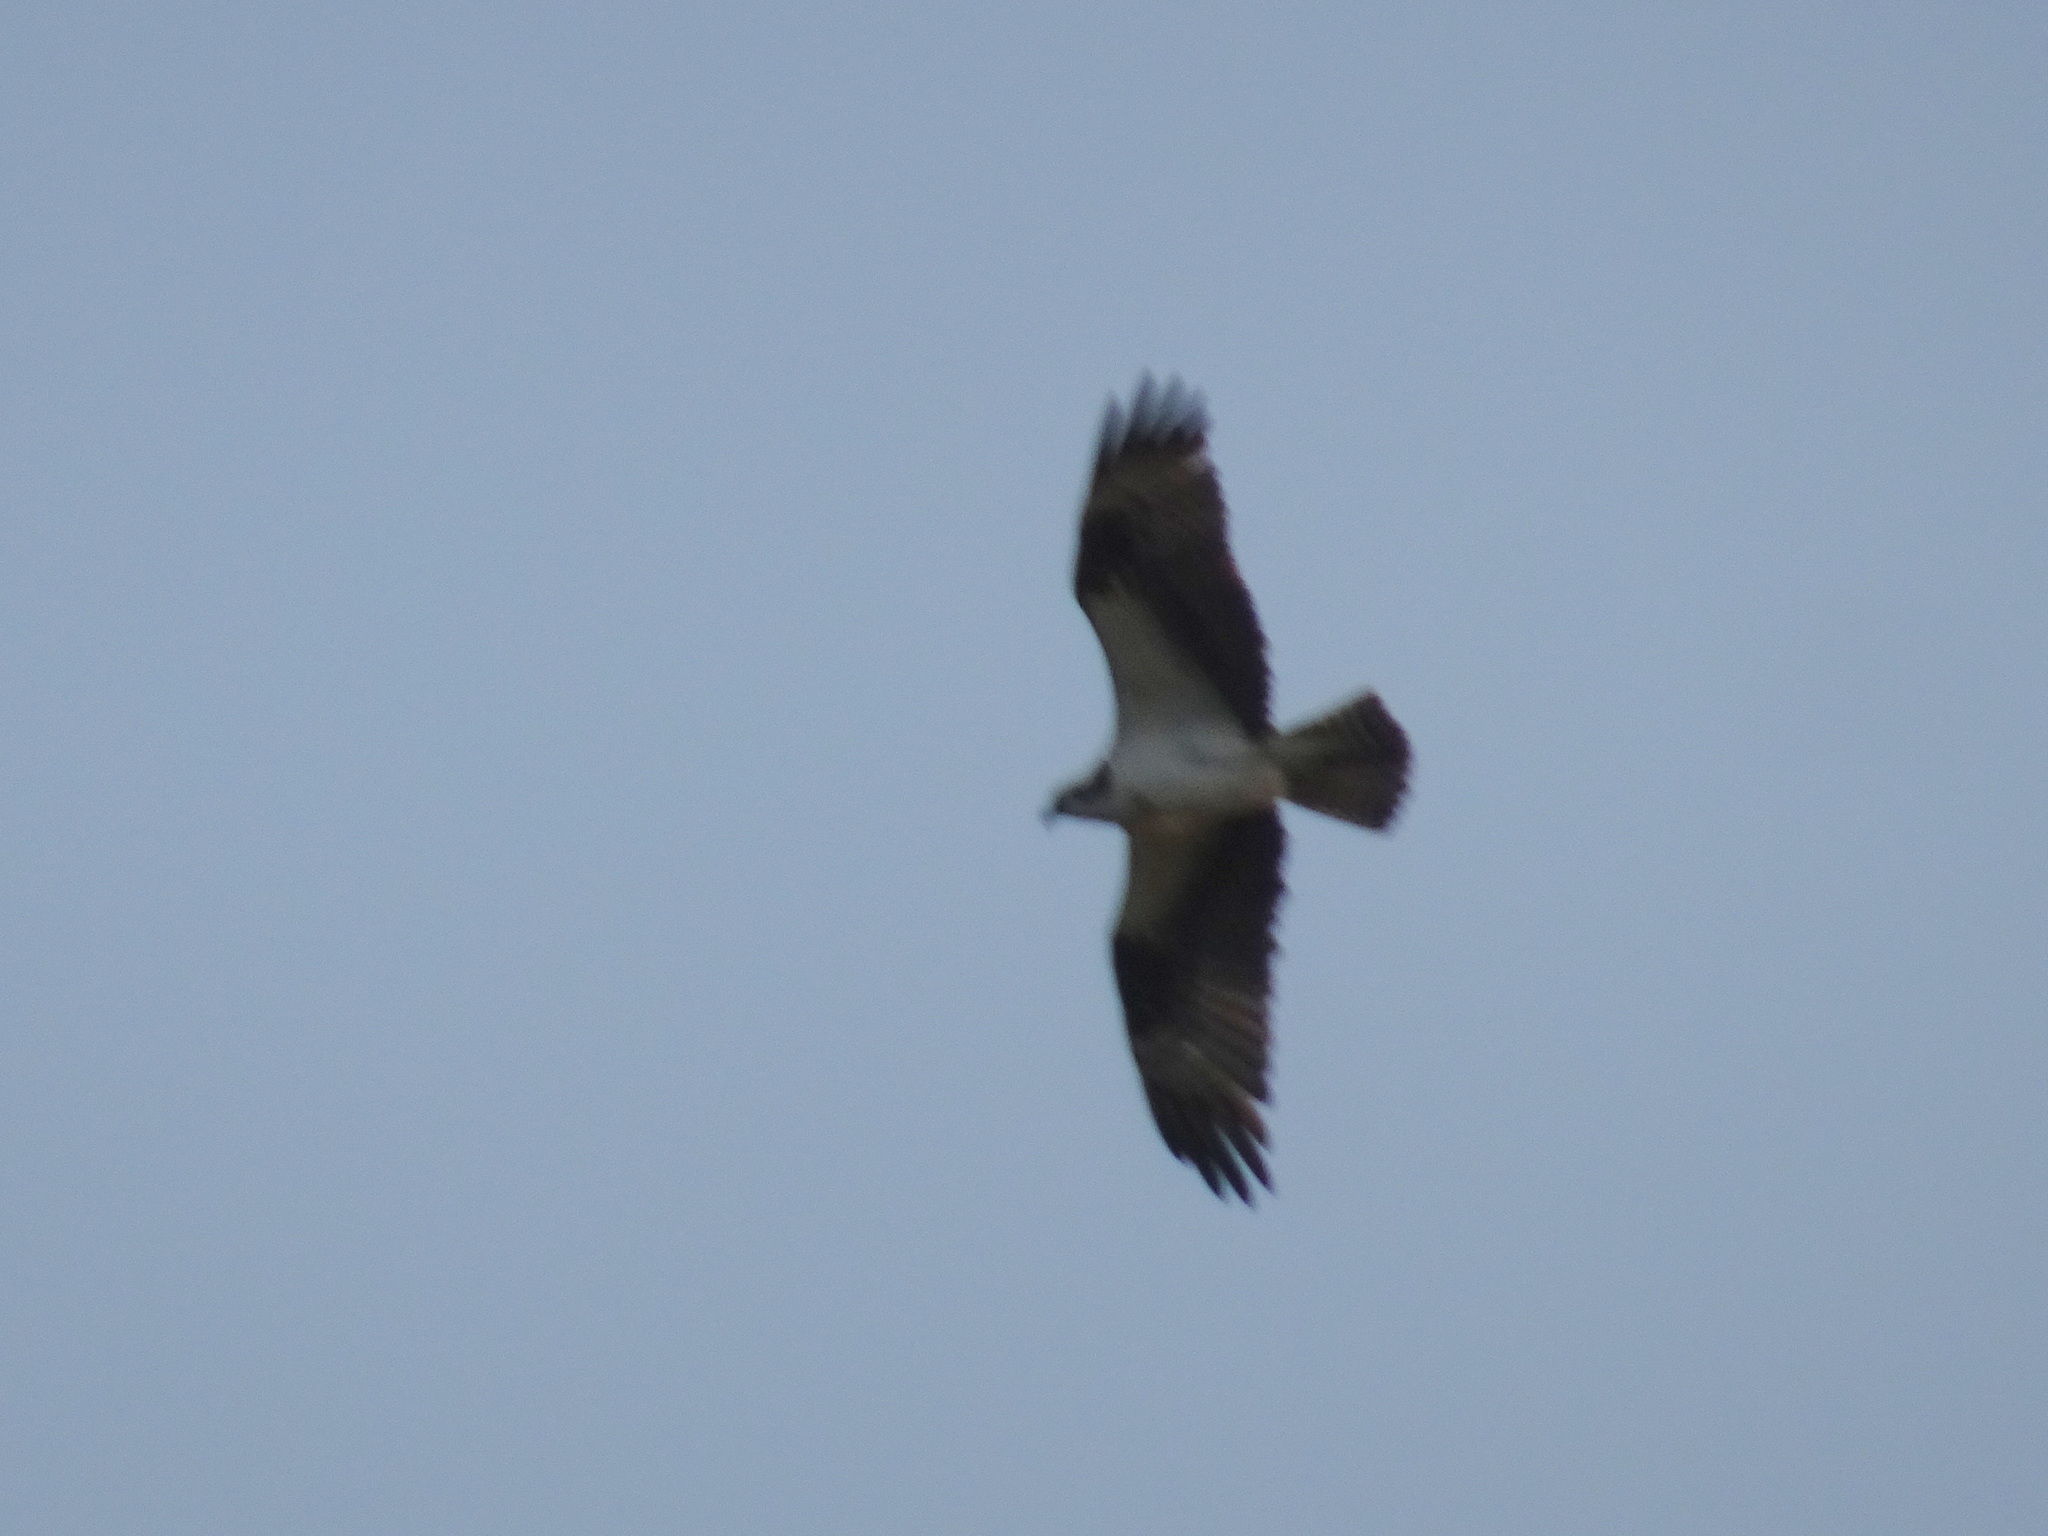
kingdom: Animalia
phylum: Chordata
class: Aves
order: Accipitriformes
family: Pandionidae
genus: Pandion
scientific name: Pandion haliaetus
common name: Osprey
